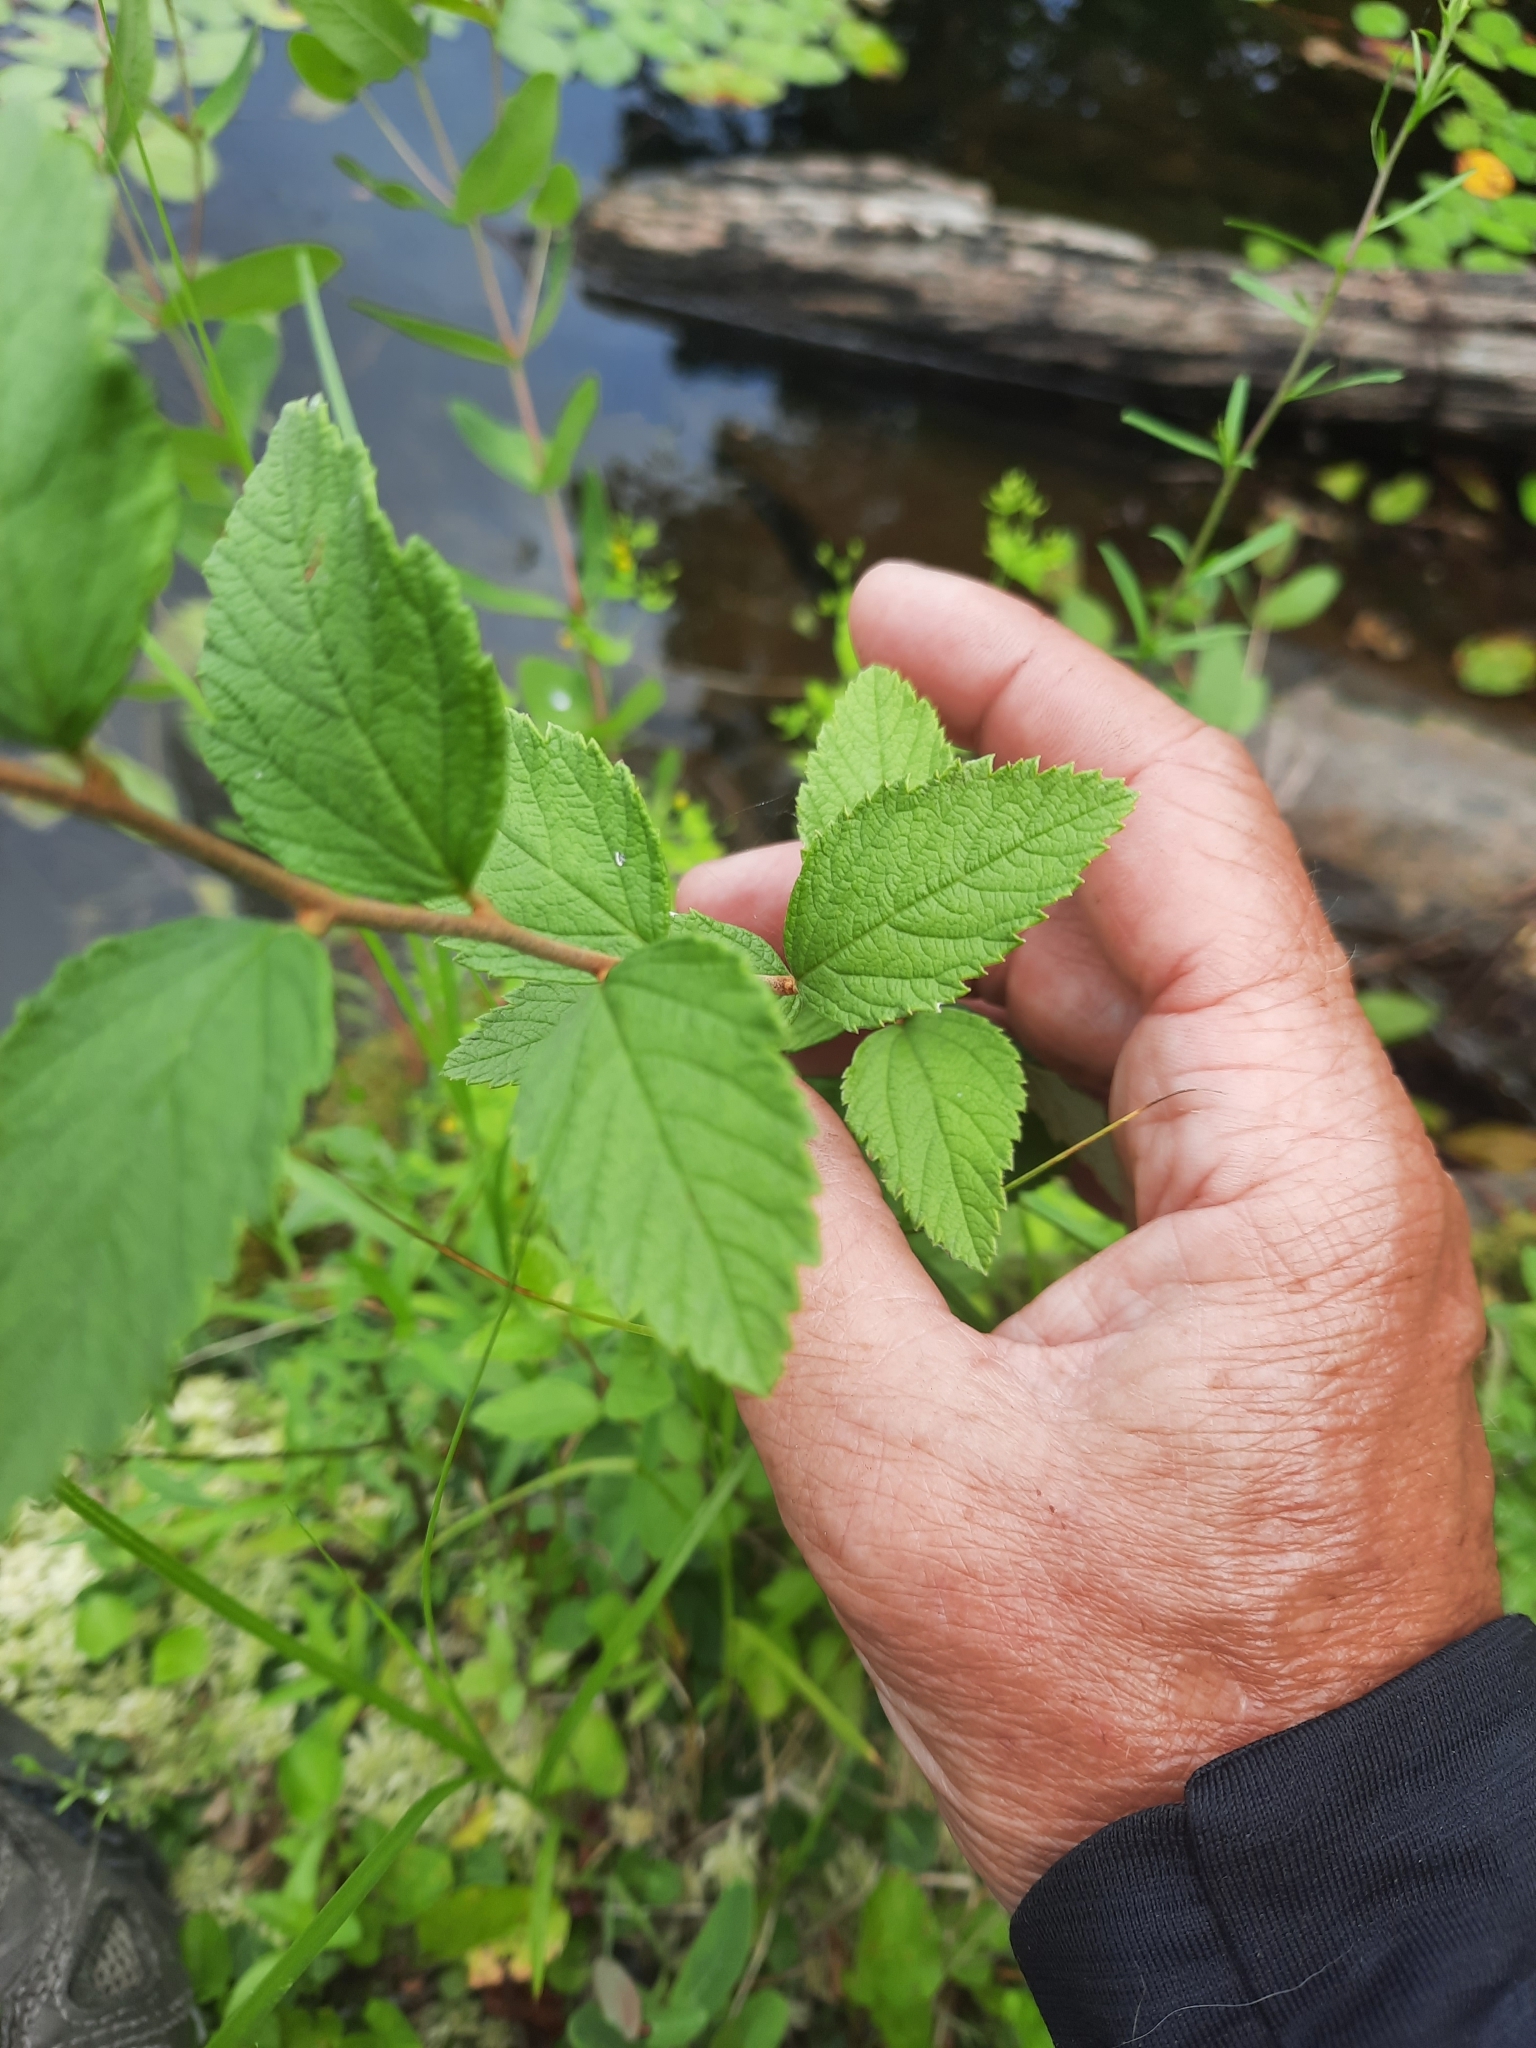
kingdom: Plantae
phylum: Tracheophyta
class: Magnoliopsida
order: Rosales
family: Rosaceae
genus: Spiraea
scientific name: Spiraea tomentosa
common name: Hardhack
